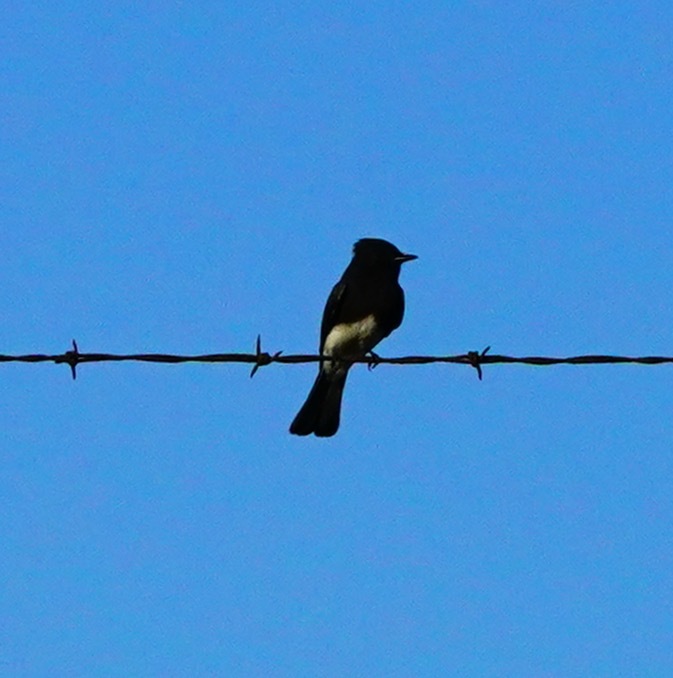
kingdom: Animalia
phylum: Chordata
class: Aves
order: Passeriformes
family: Tyrannidae
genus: Sayornis
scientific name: Sayornis nigricans
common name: Black phoebe
